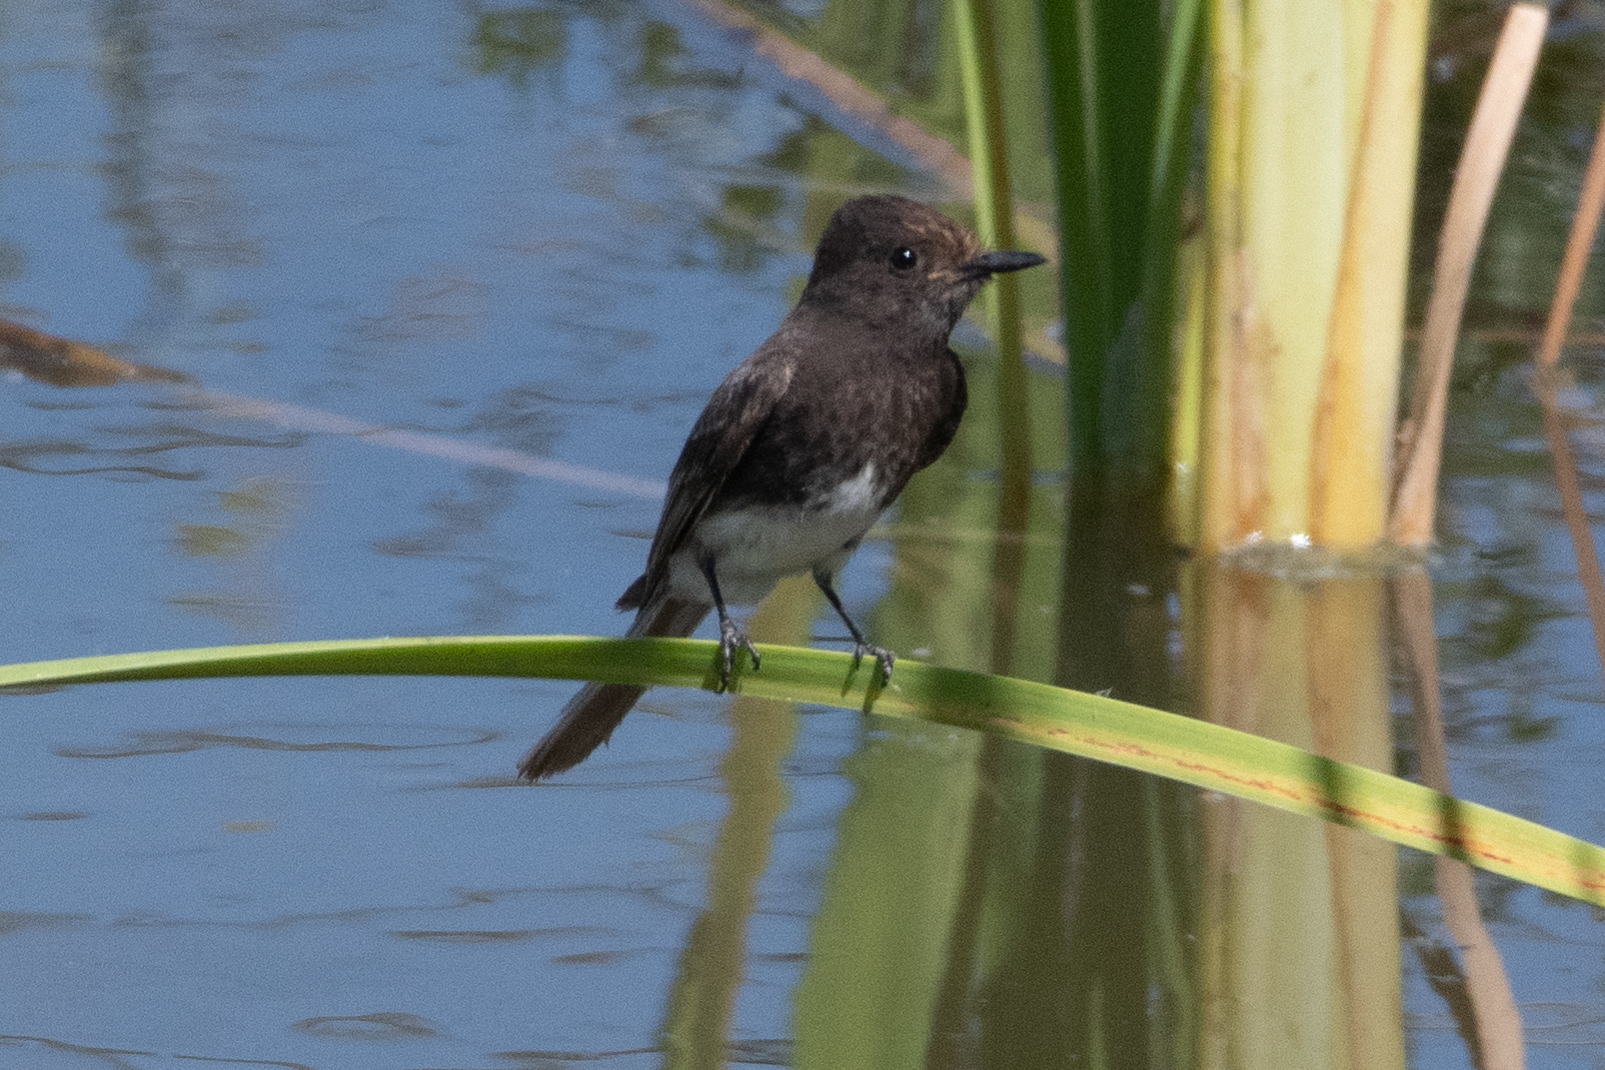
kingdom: Animalia
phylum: Chordata
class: Aves
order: Passeriformes
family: Tyrannidae
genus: Sayornis
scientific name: Sayornis nigricans
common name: Black phoebe
